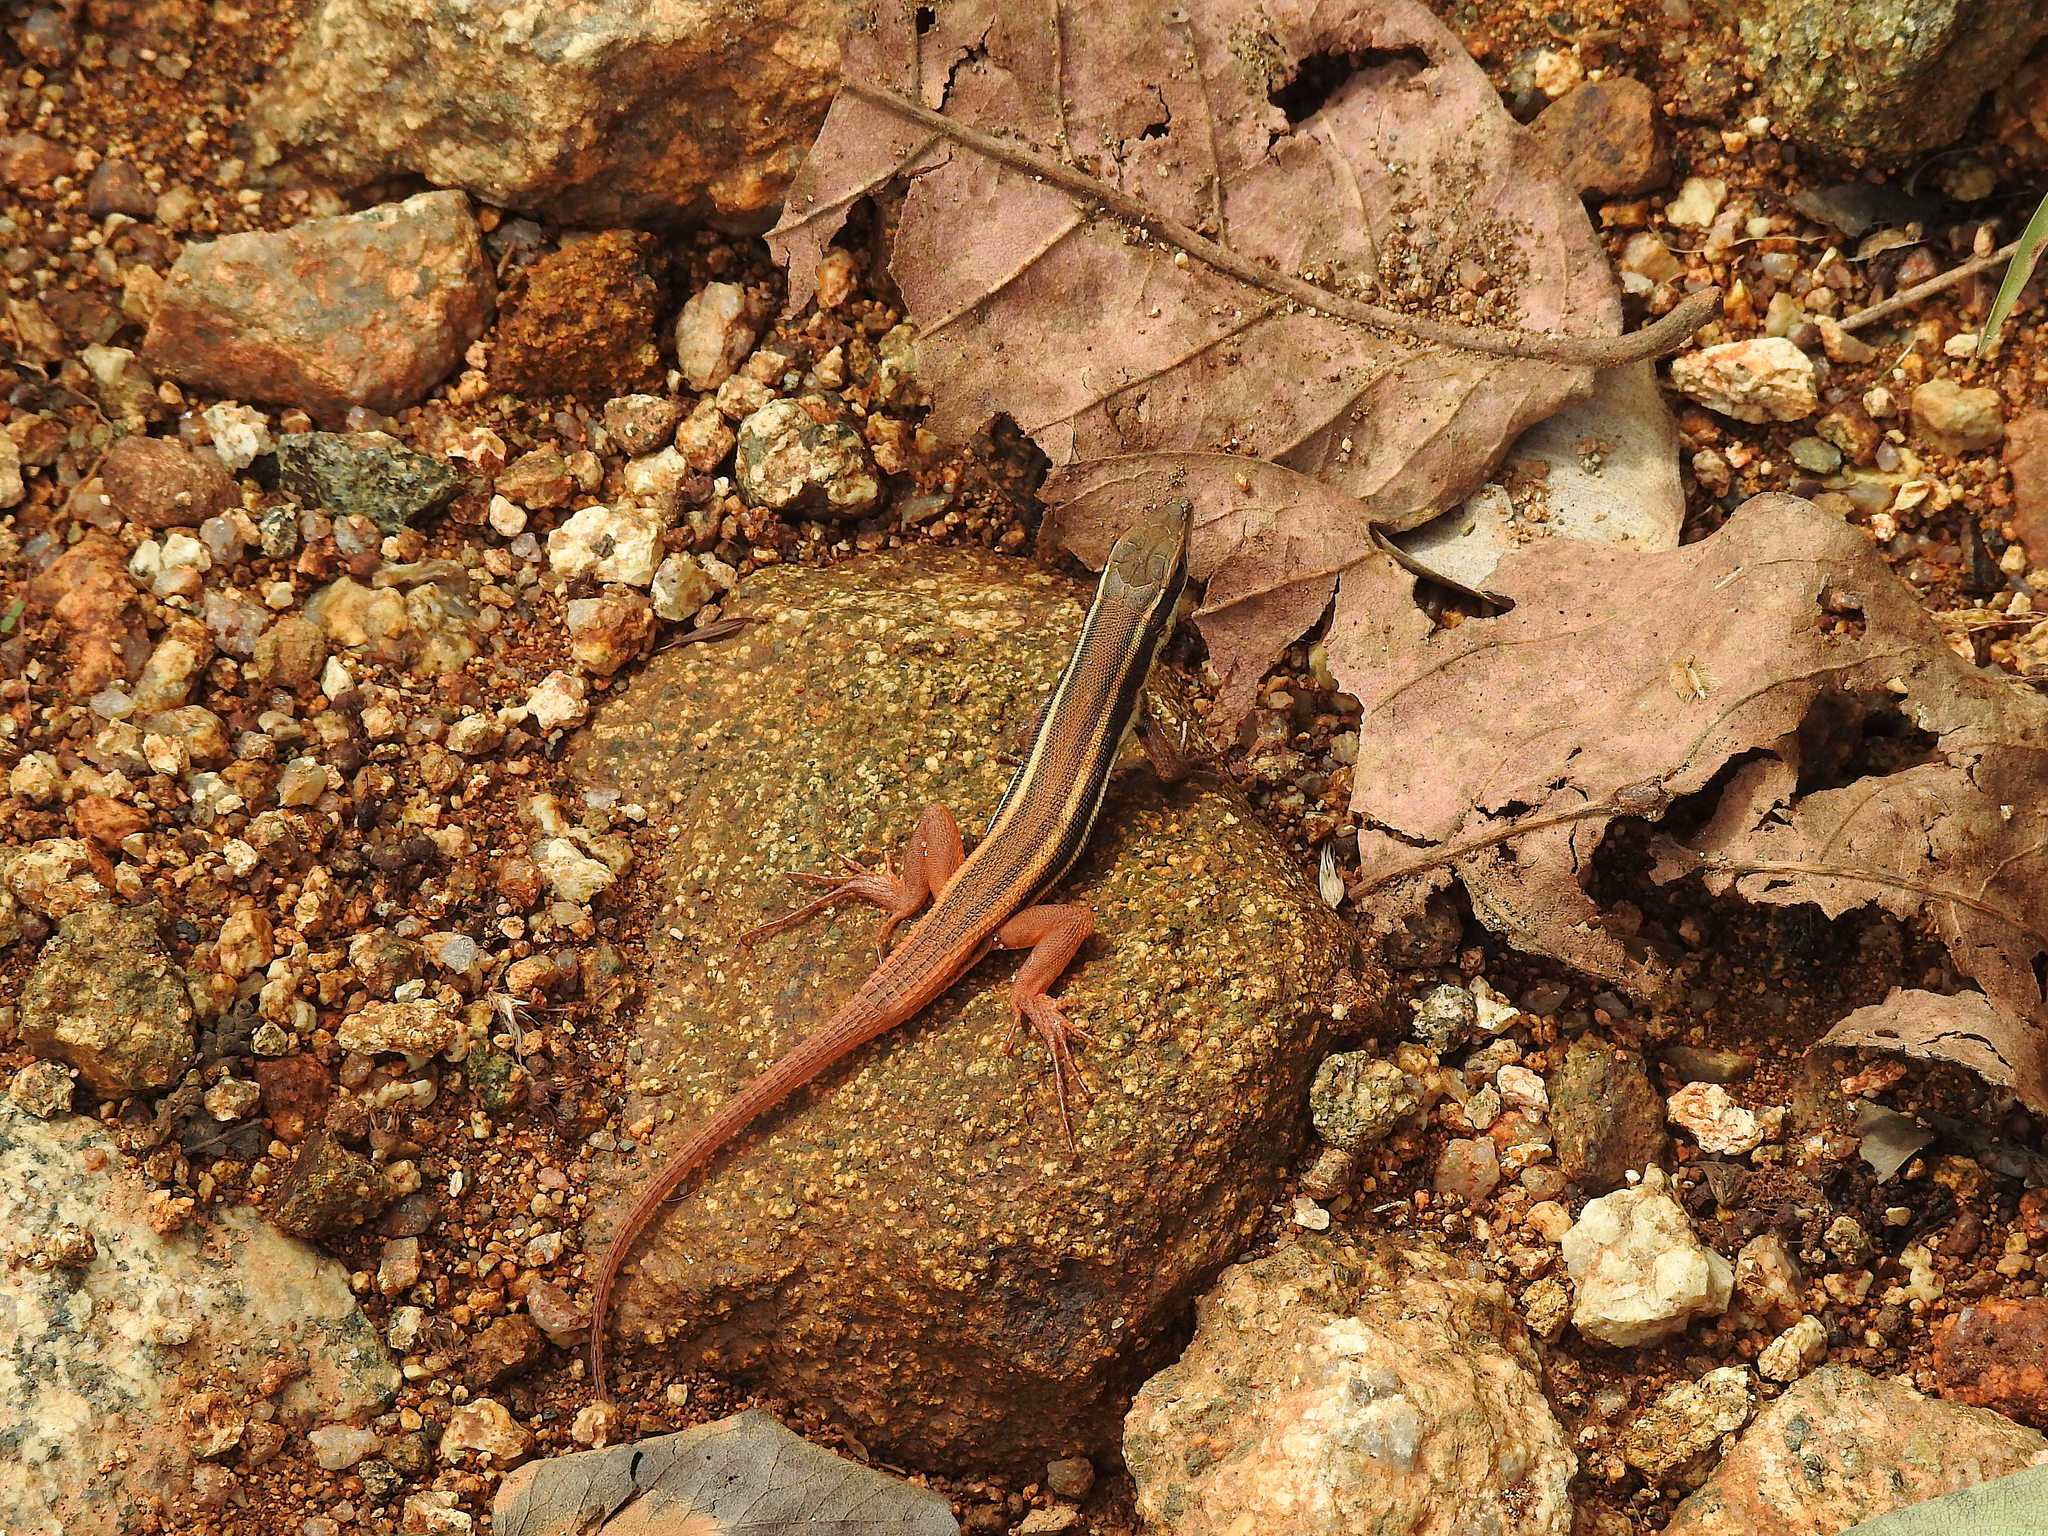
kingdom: Animalia
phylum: Chordata
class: Squamata
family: Lacertidae
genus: Ophisops
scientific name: Ophisops leschenaultii
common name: Leschenault's cabrita
